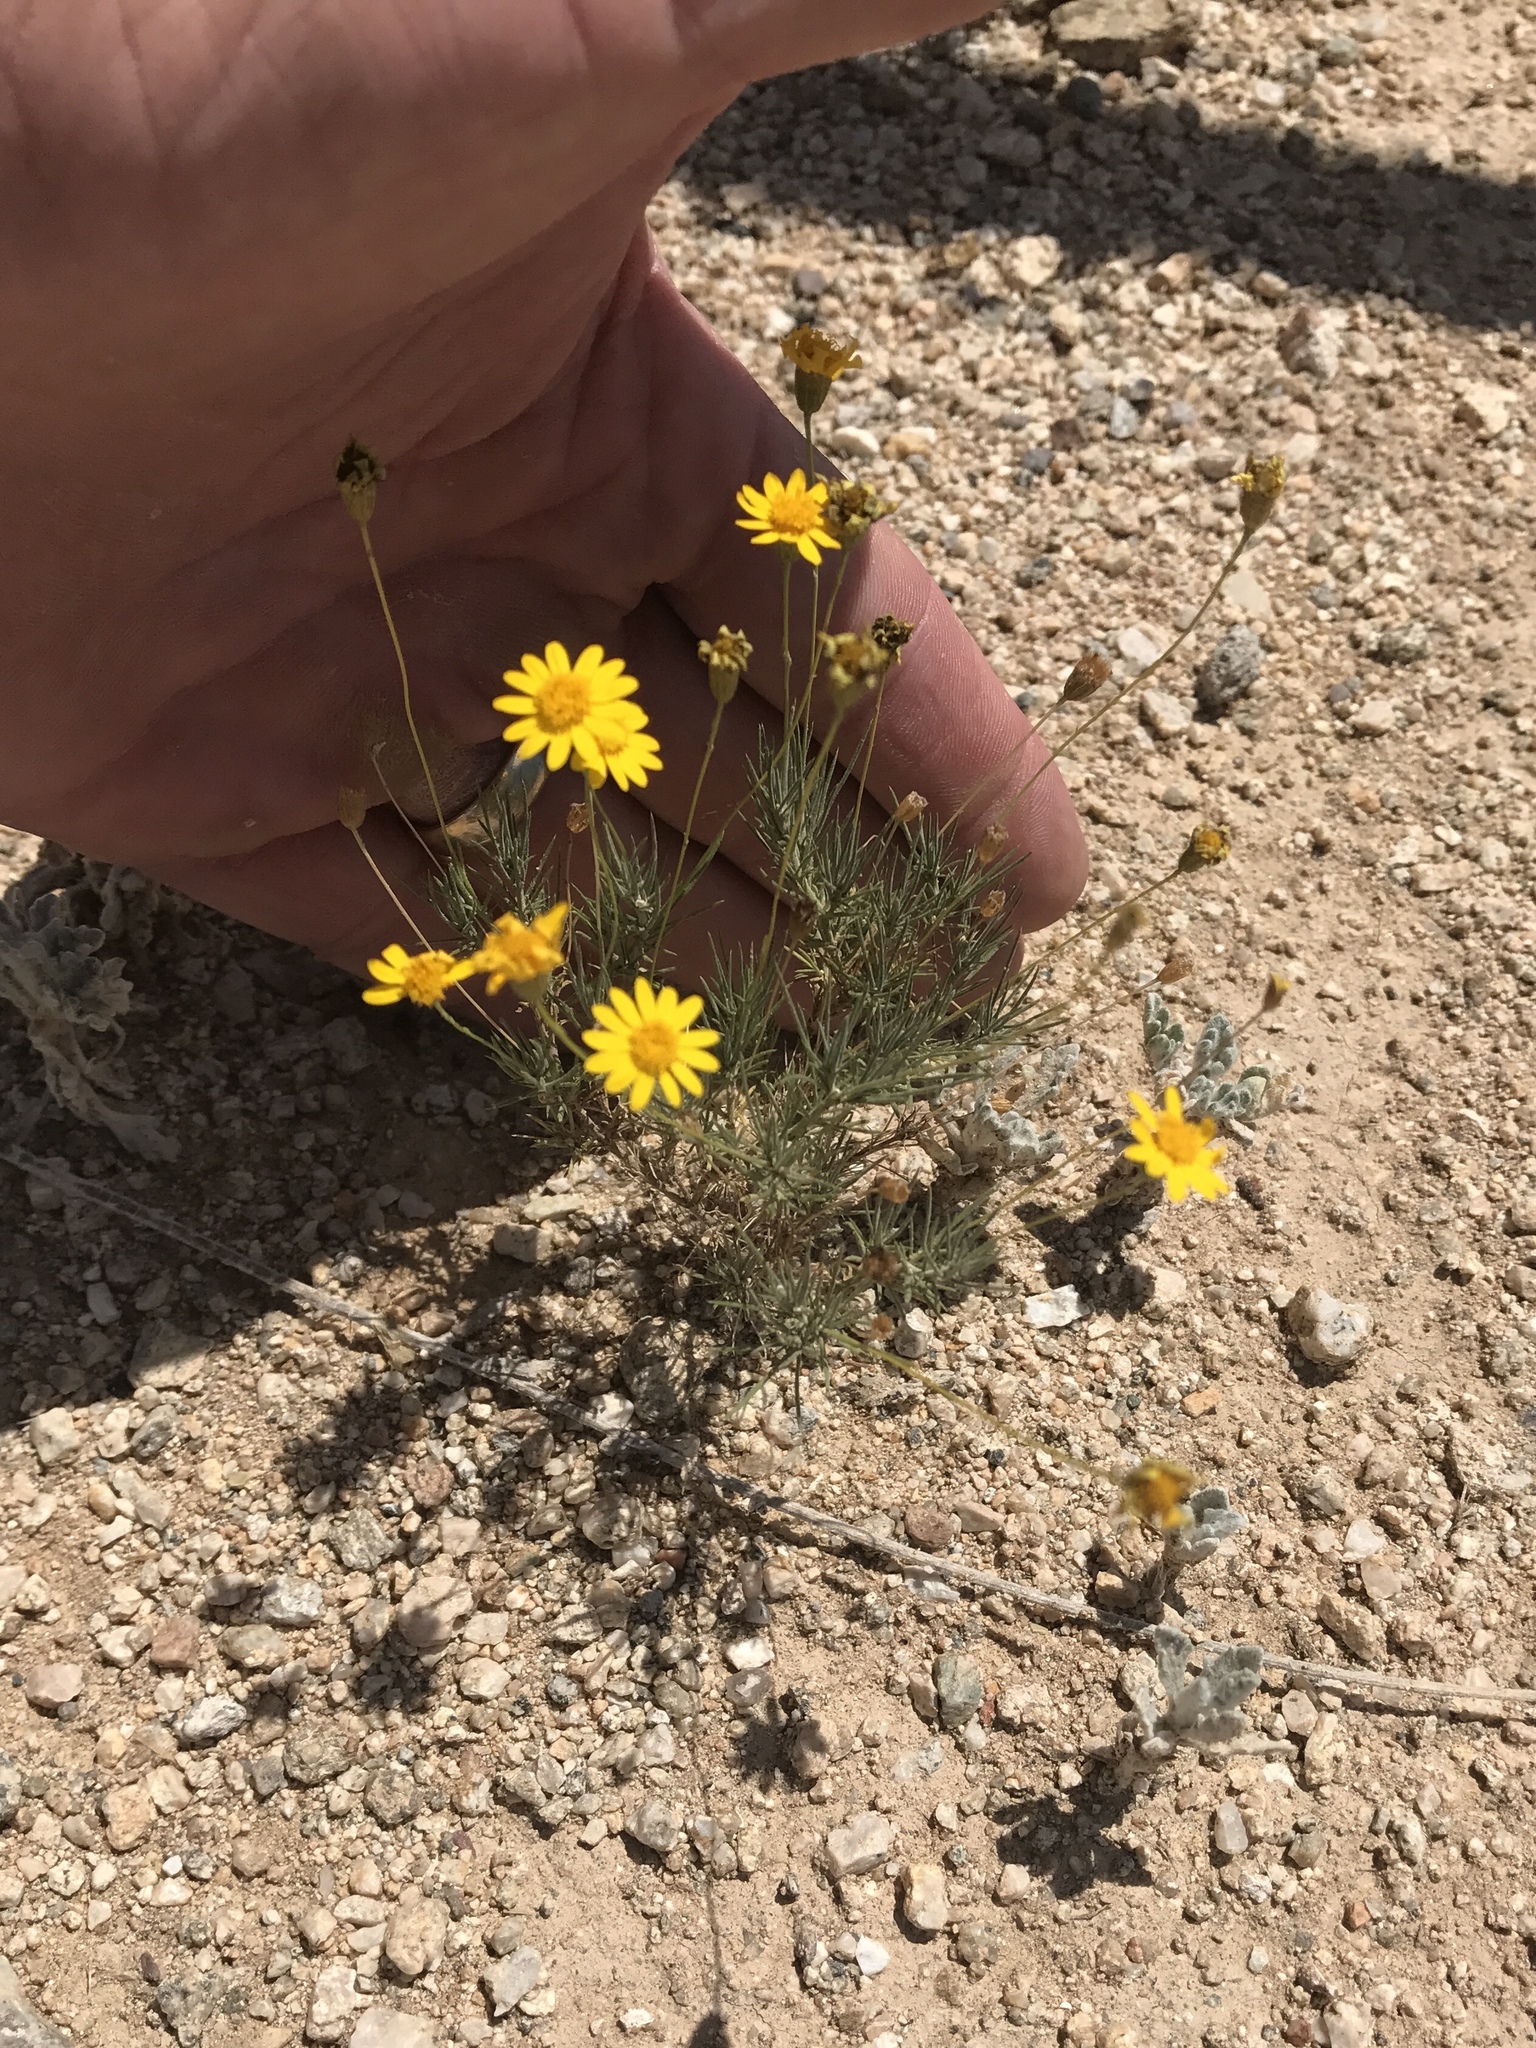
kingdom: Plantae
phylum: Tracheophyta
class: Magnoliopsida
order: Asterales
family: Asteraceae
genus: Thymophylla
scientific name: Thymophylla pentachaeta
